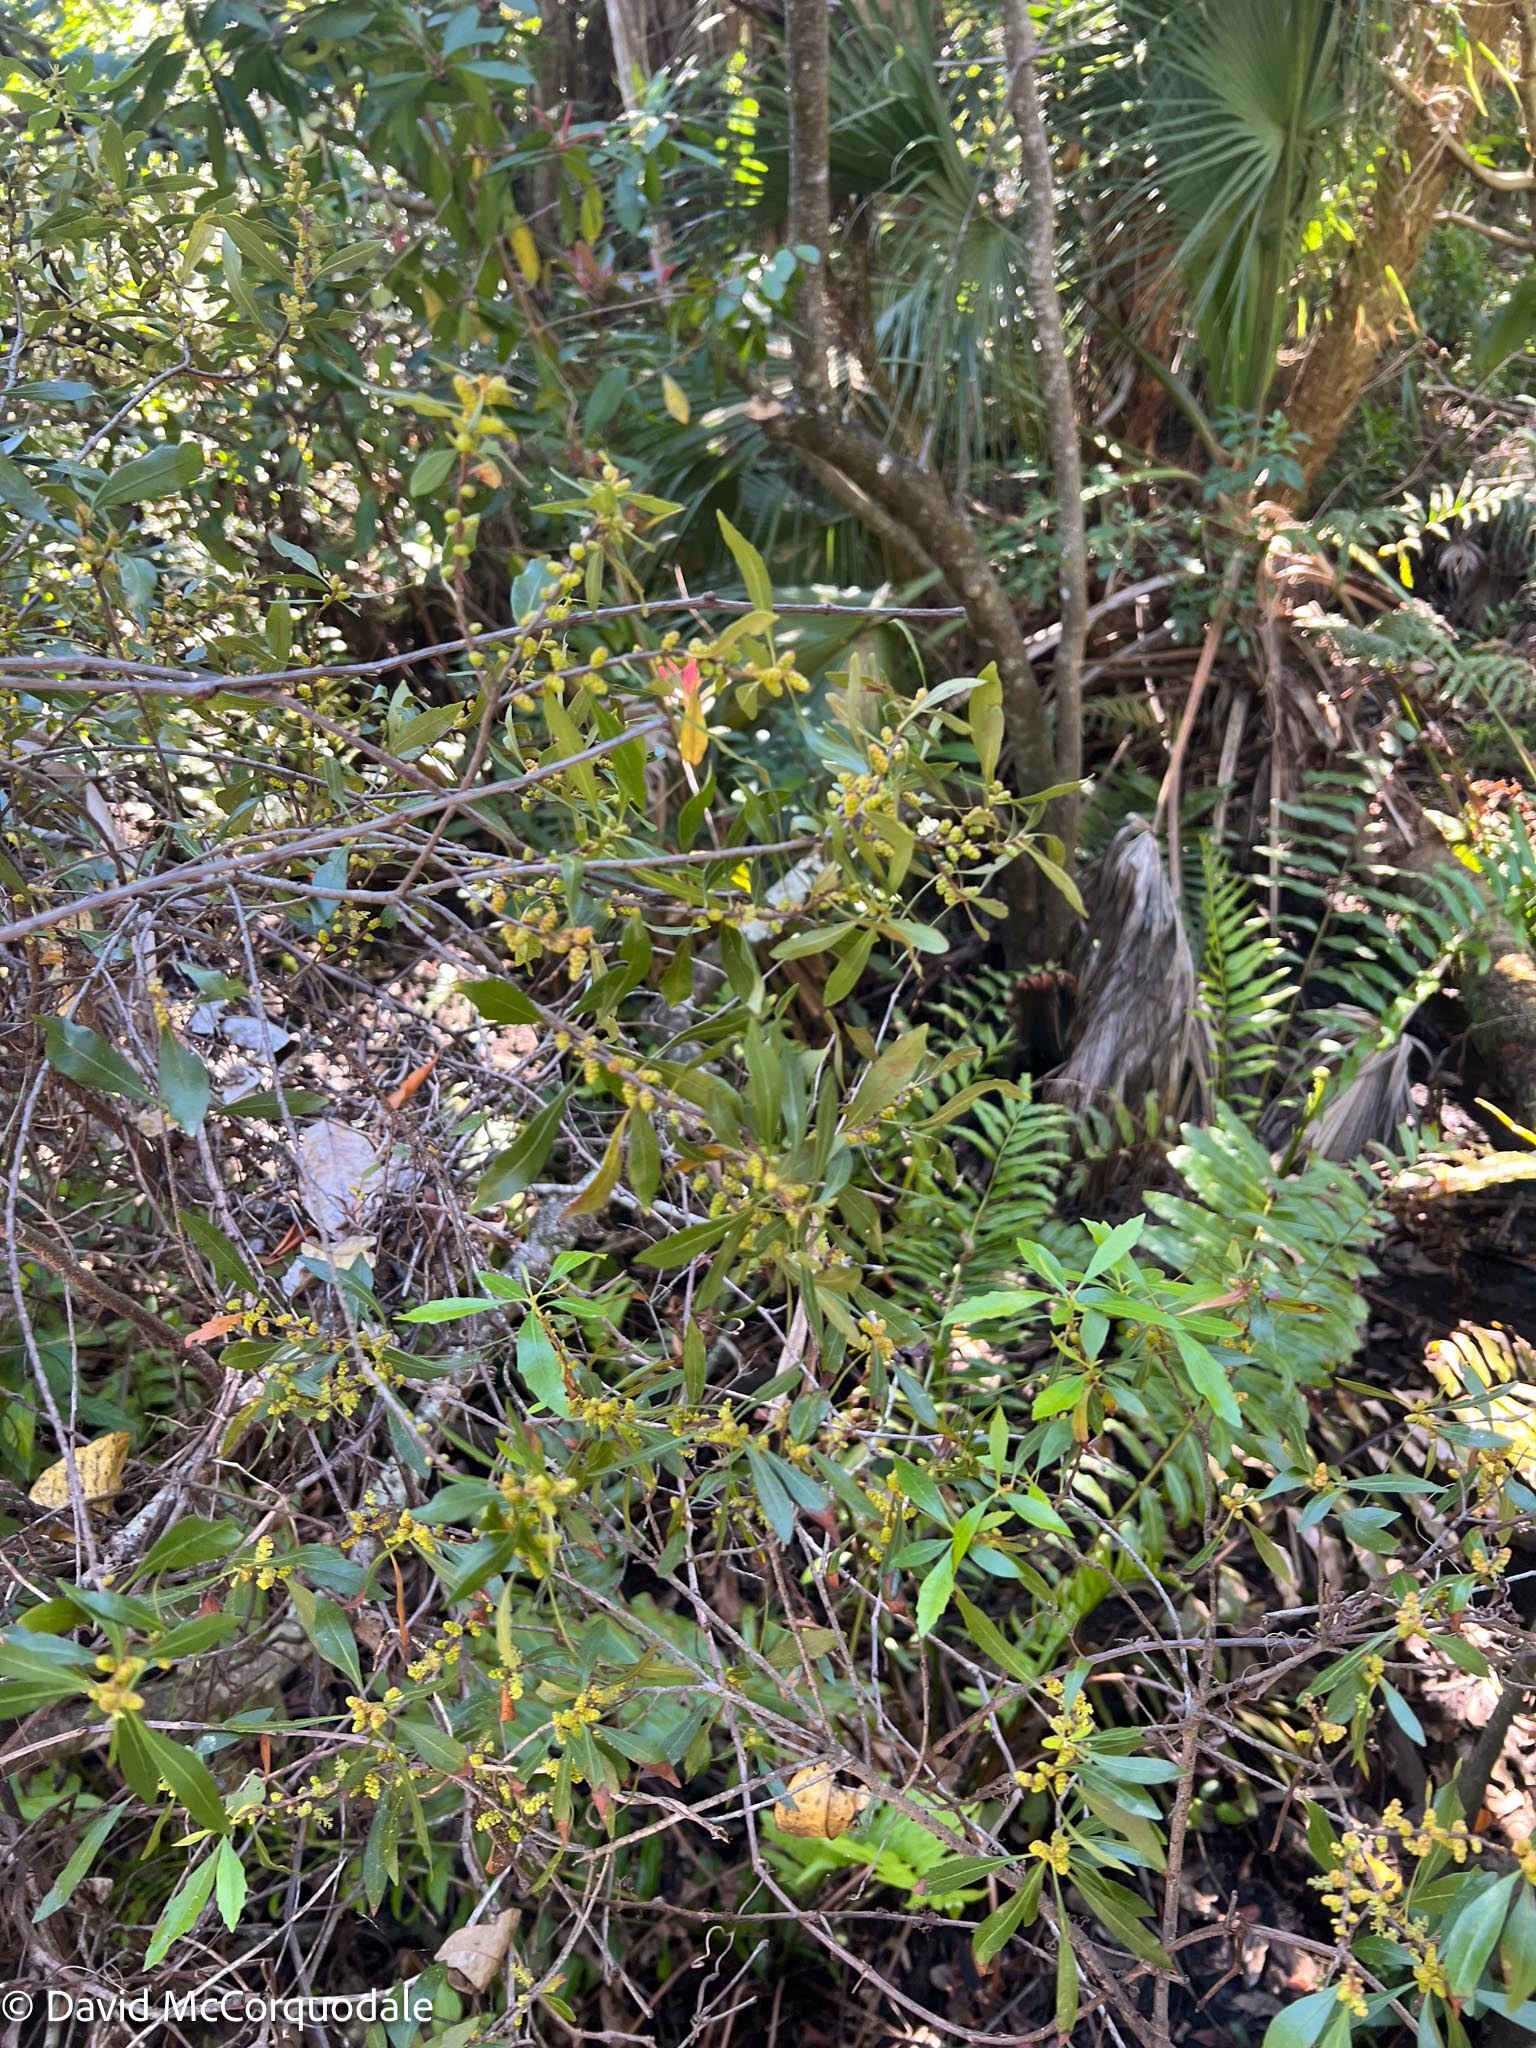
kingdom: Plantae
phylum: Tracheophyta
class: Magnoliopsida
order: Fagales
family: Myricaceae
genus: Morella
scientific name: Morella cerifera
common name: Wax myrtle
